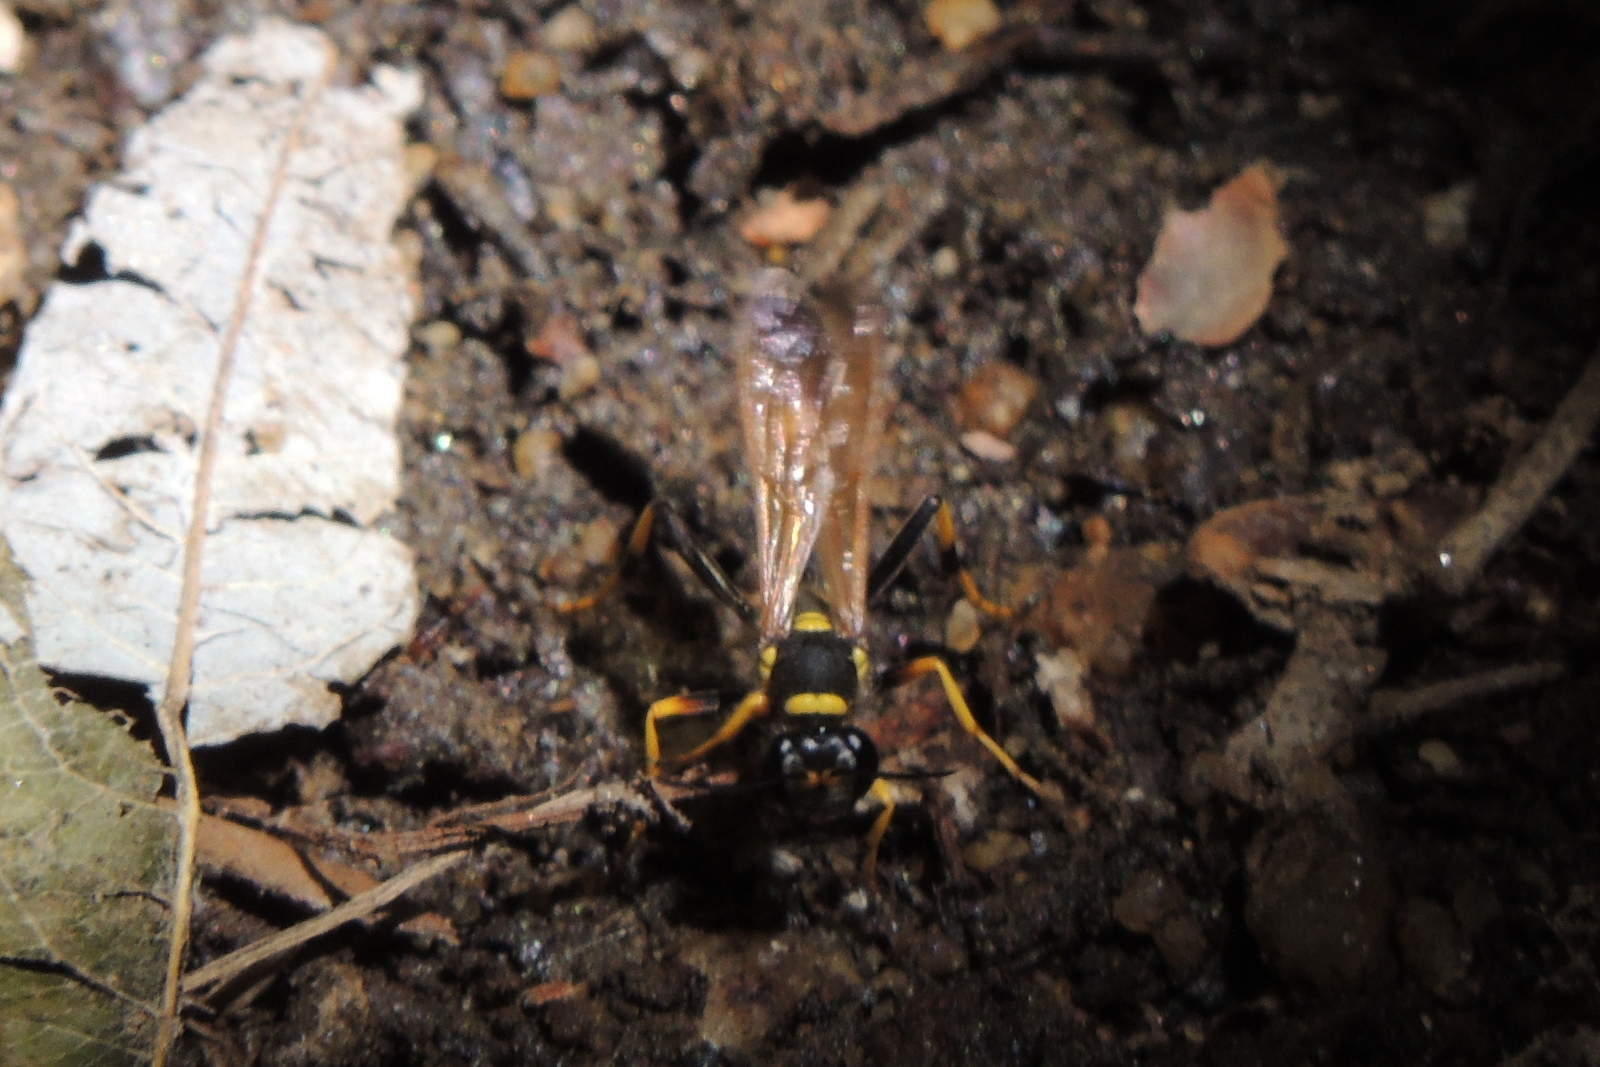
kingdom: Animalia
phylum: Arthropoda
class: Insecta
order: Hymenoptera
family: Sphecidae
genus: Sceliphron
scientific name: Sceliphron caementarium
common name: Mud dauber
